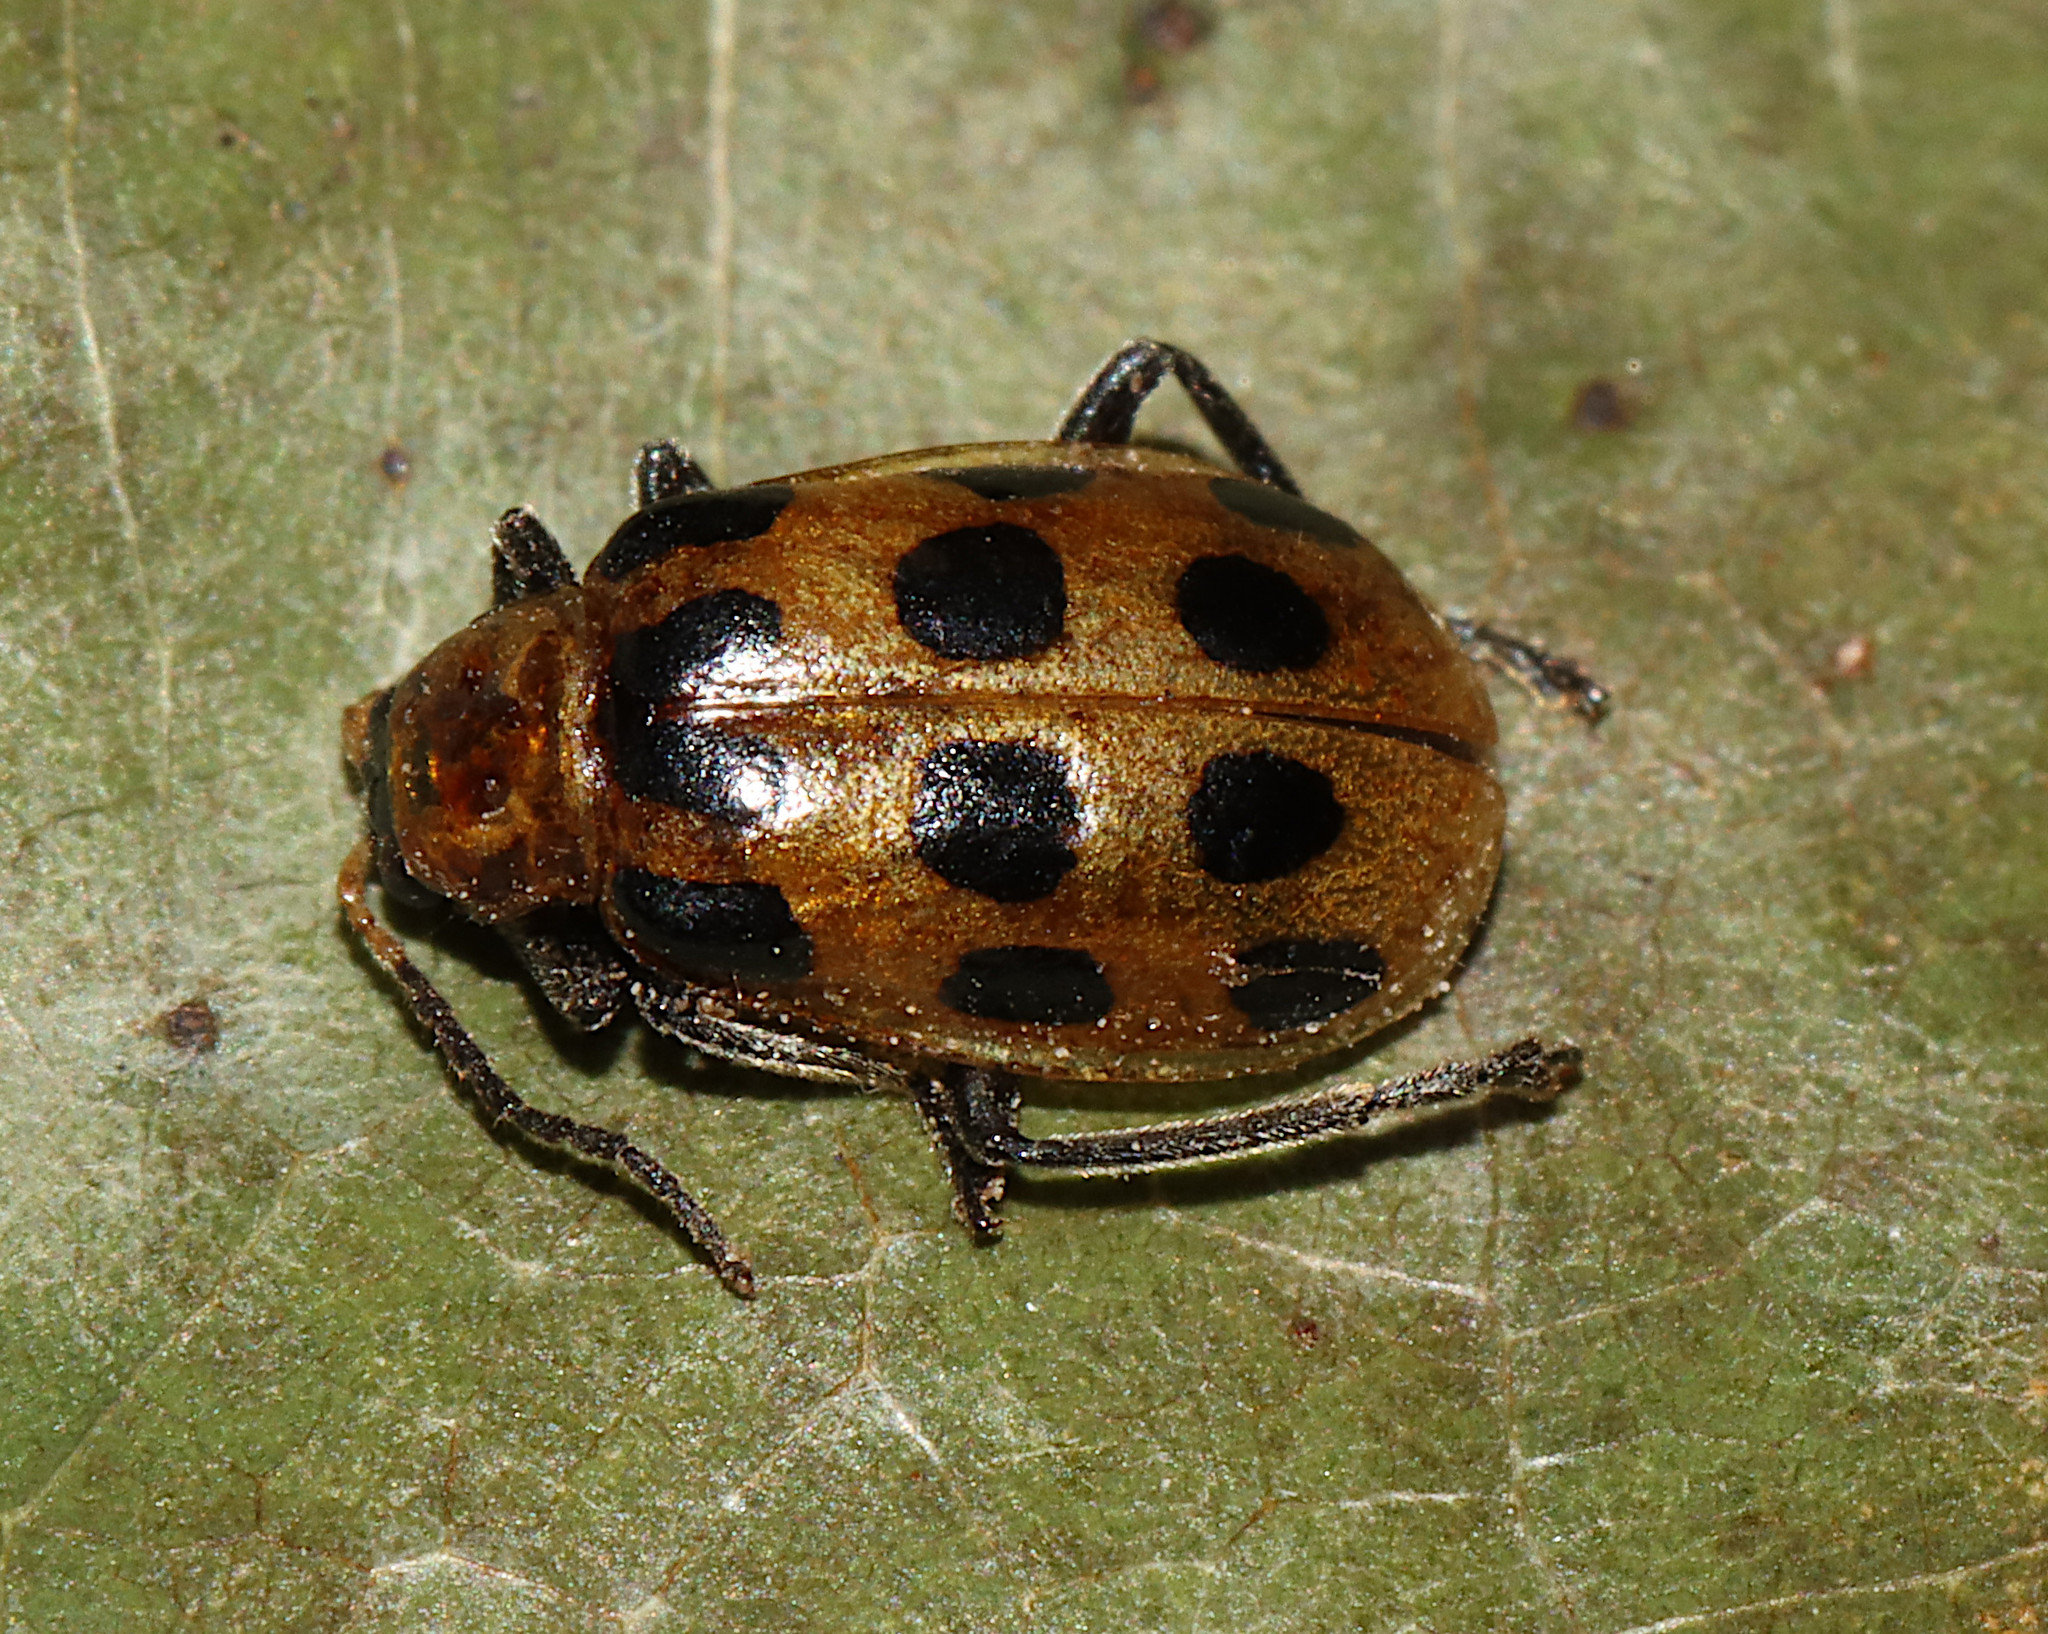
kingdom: Animalia
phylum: Arthropoda
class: Insecta
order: Coleoptera
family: Chrysomelidae
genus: Diabrotica
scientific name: Diabrotica undecimpunctata
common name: Spotted cucumber beetle
